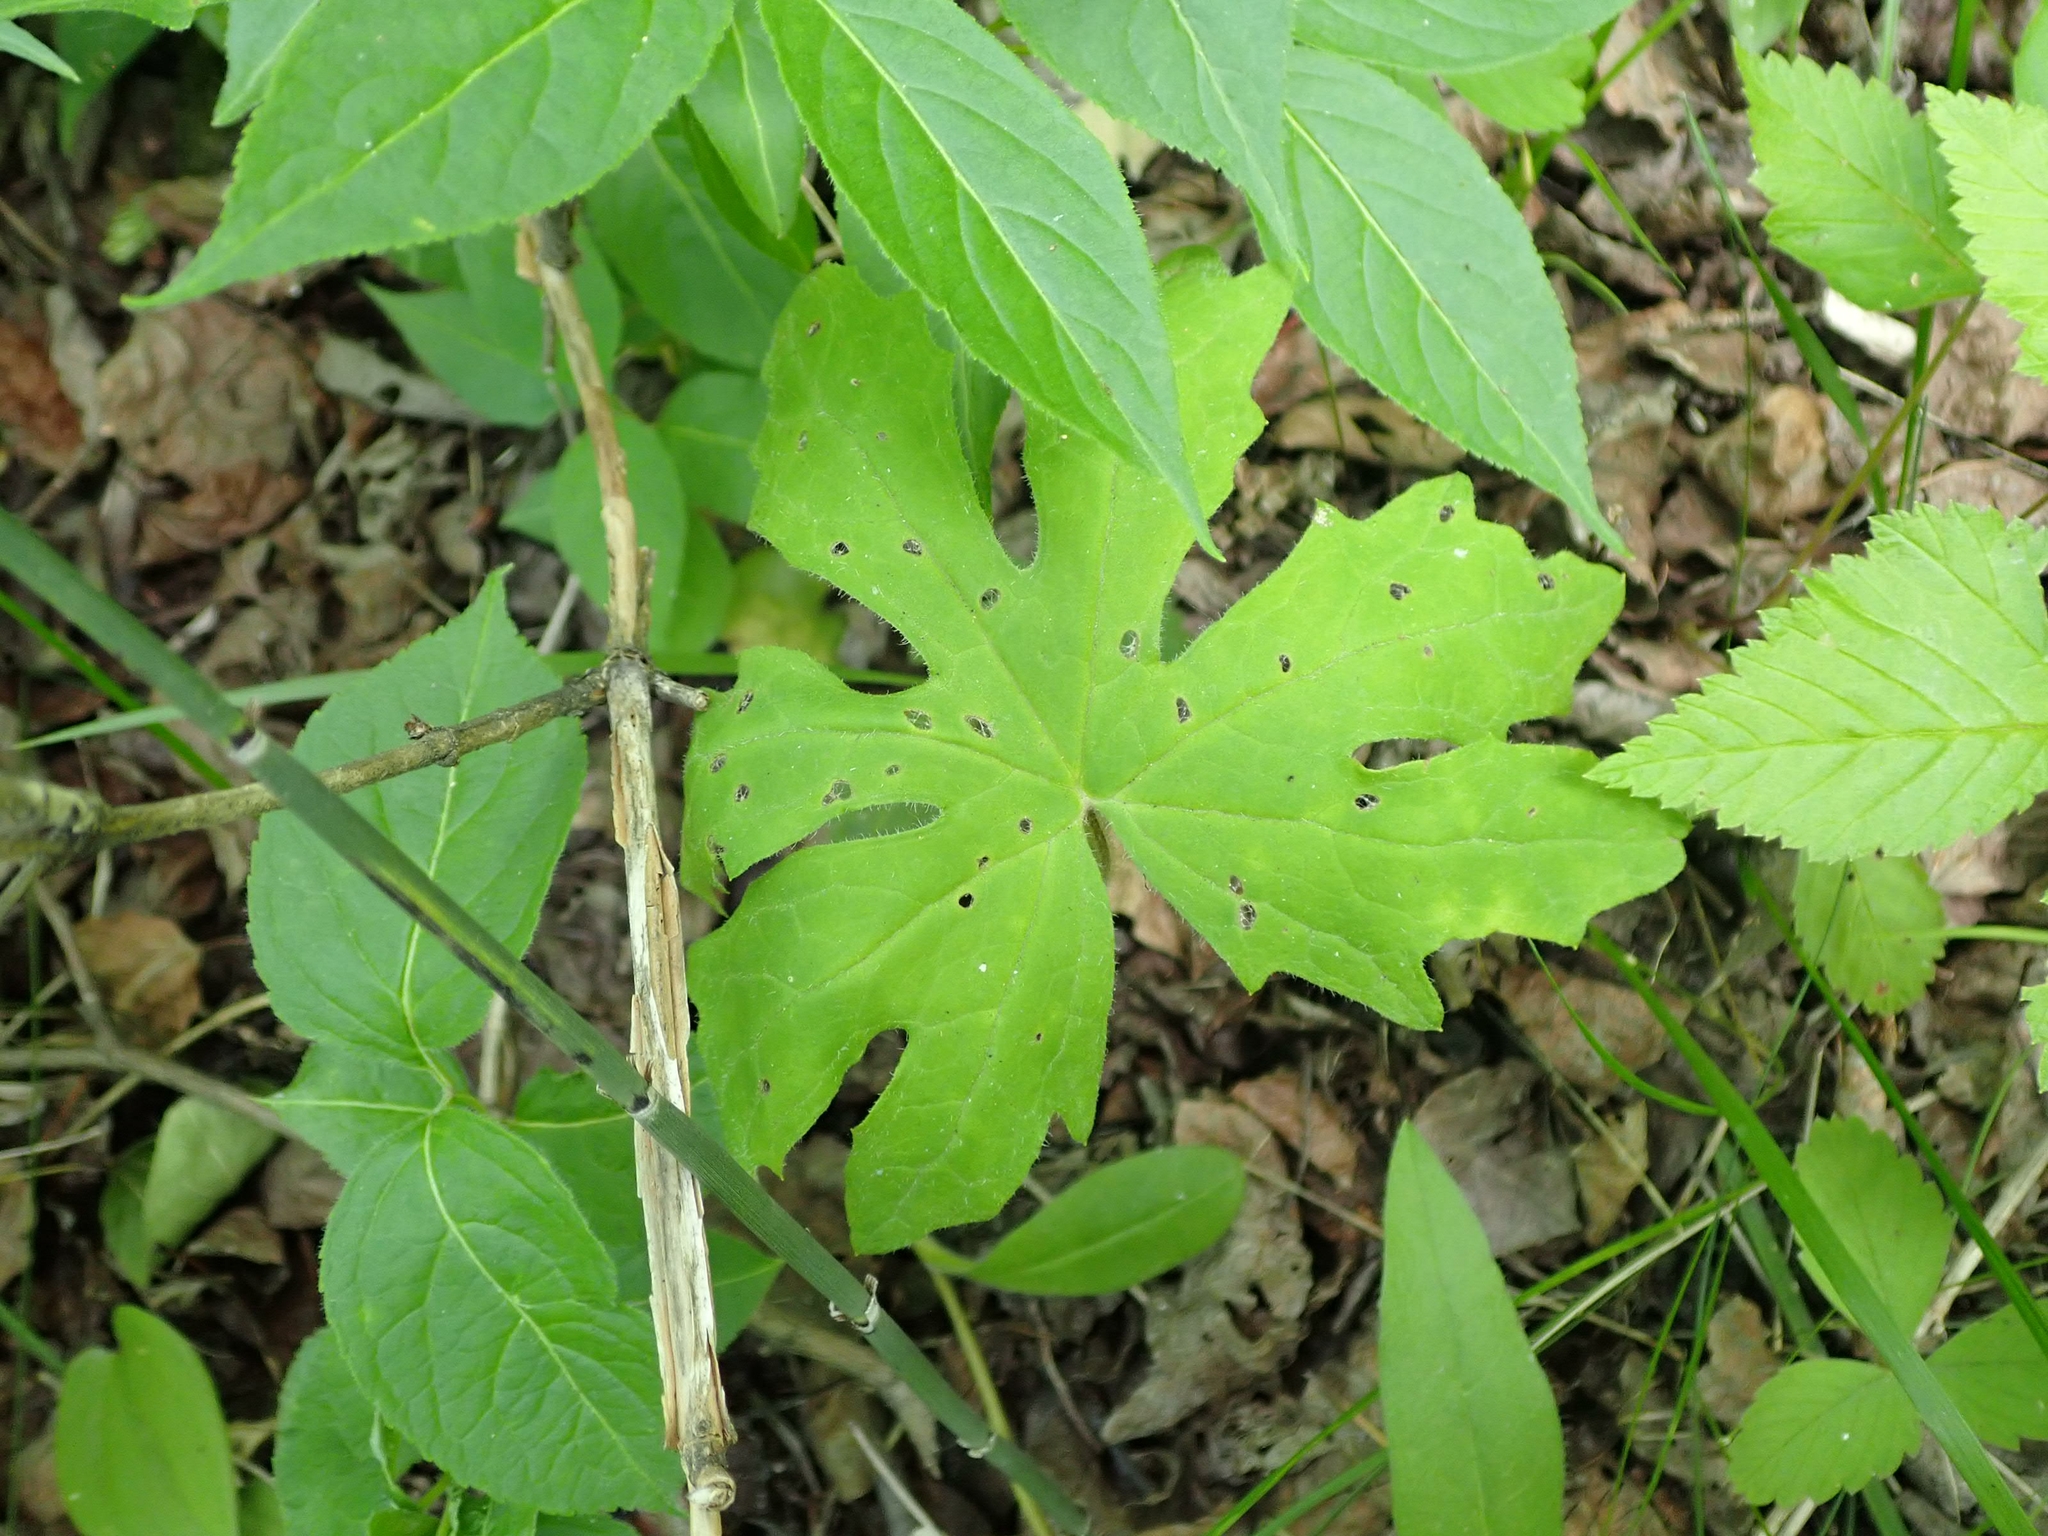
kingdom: Plantae
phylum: Tracheophyta
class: Magnoliopsida
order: Asterales
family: Asteraceae
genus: Petasites
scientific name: Petasites frigidus
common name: Arctic butterbur
